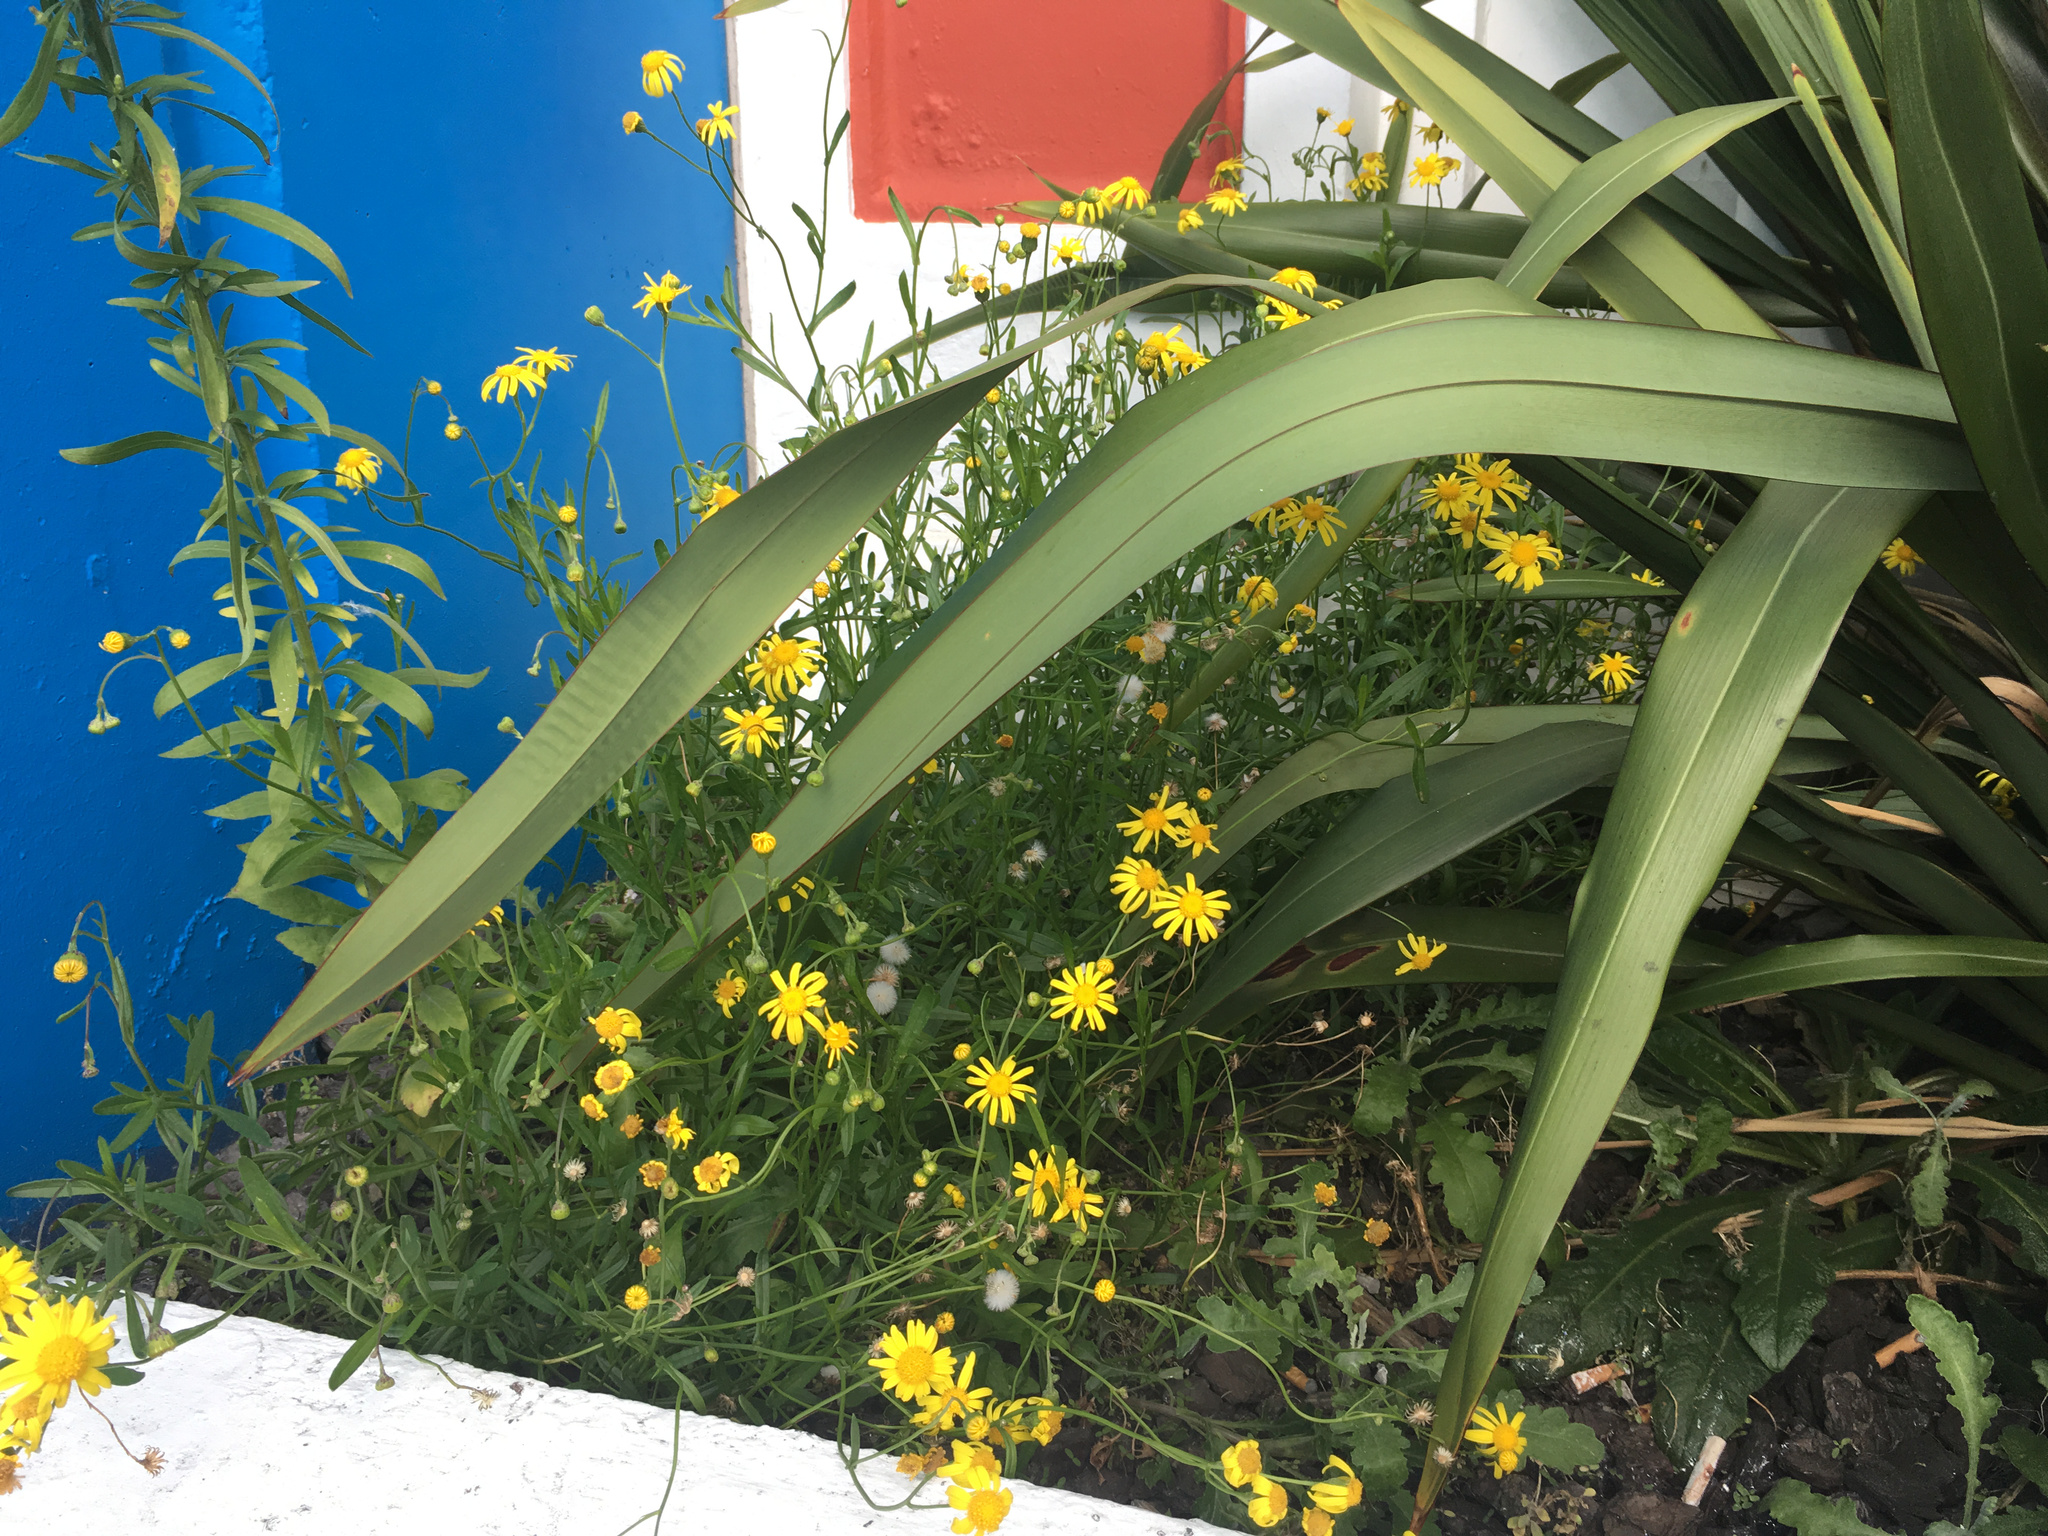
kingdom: Plantae
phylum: Tracheophyta
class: Magnoliopsida
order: Asterales
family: Asteraceae
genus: Senecio
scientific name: Senecio skirrhodon
